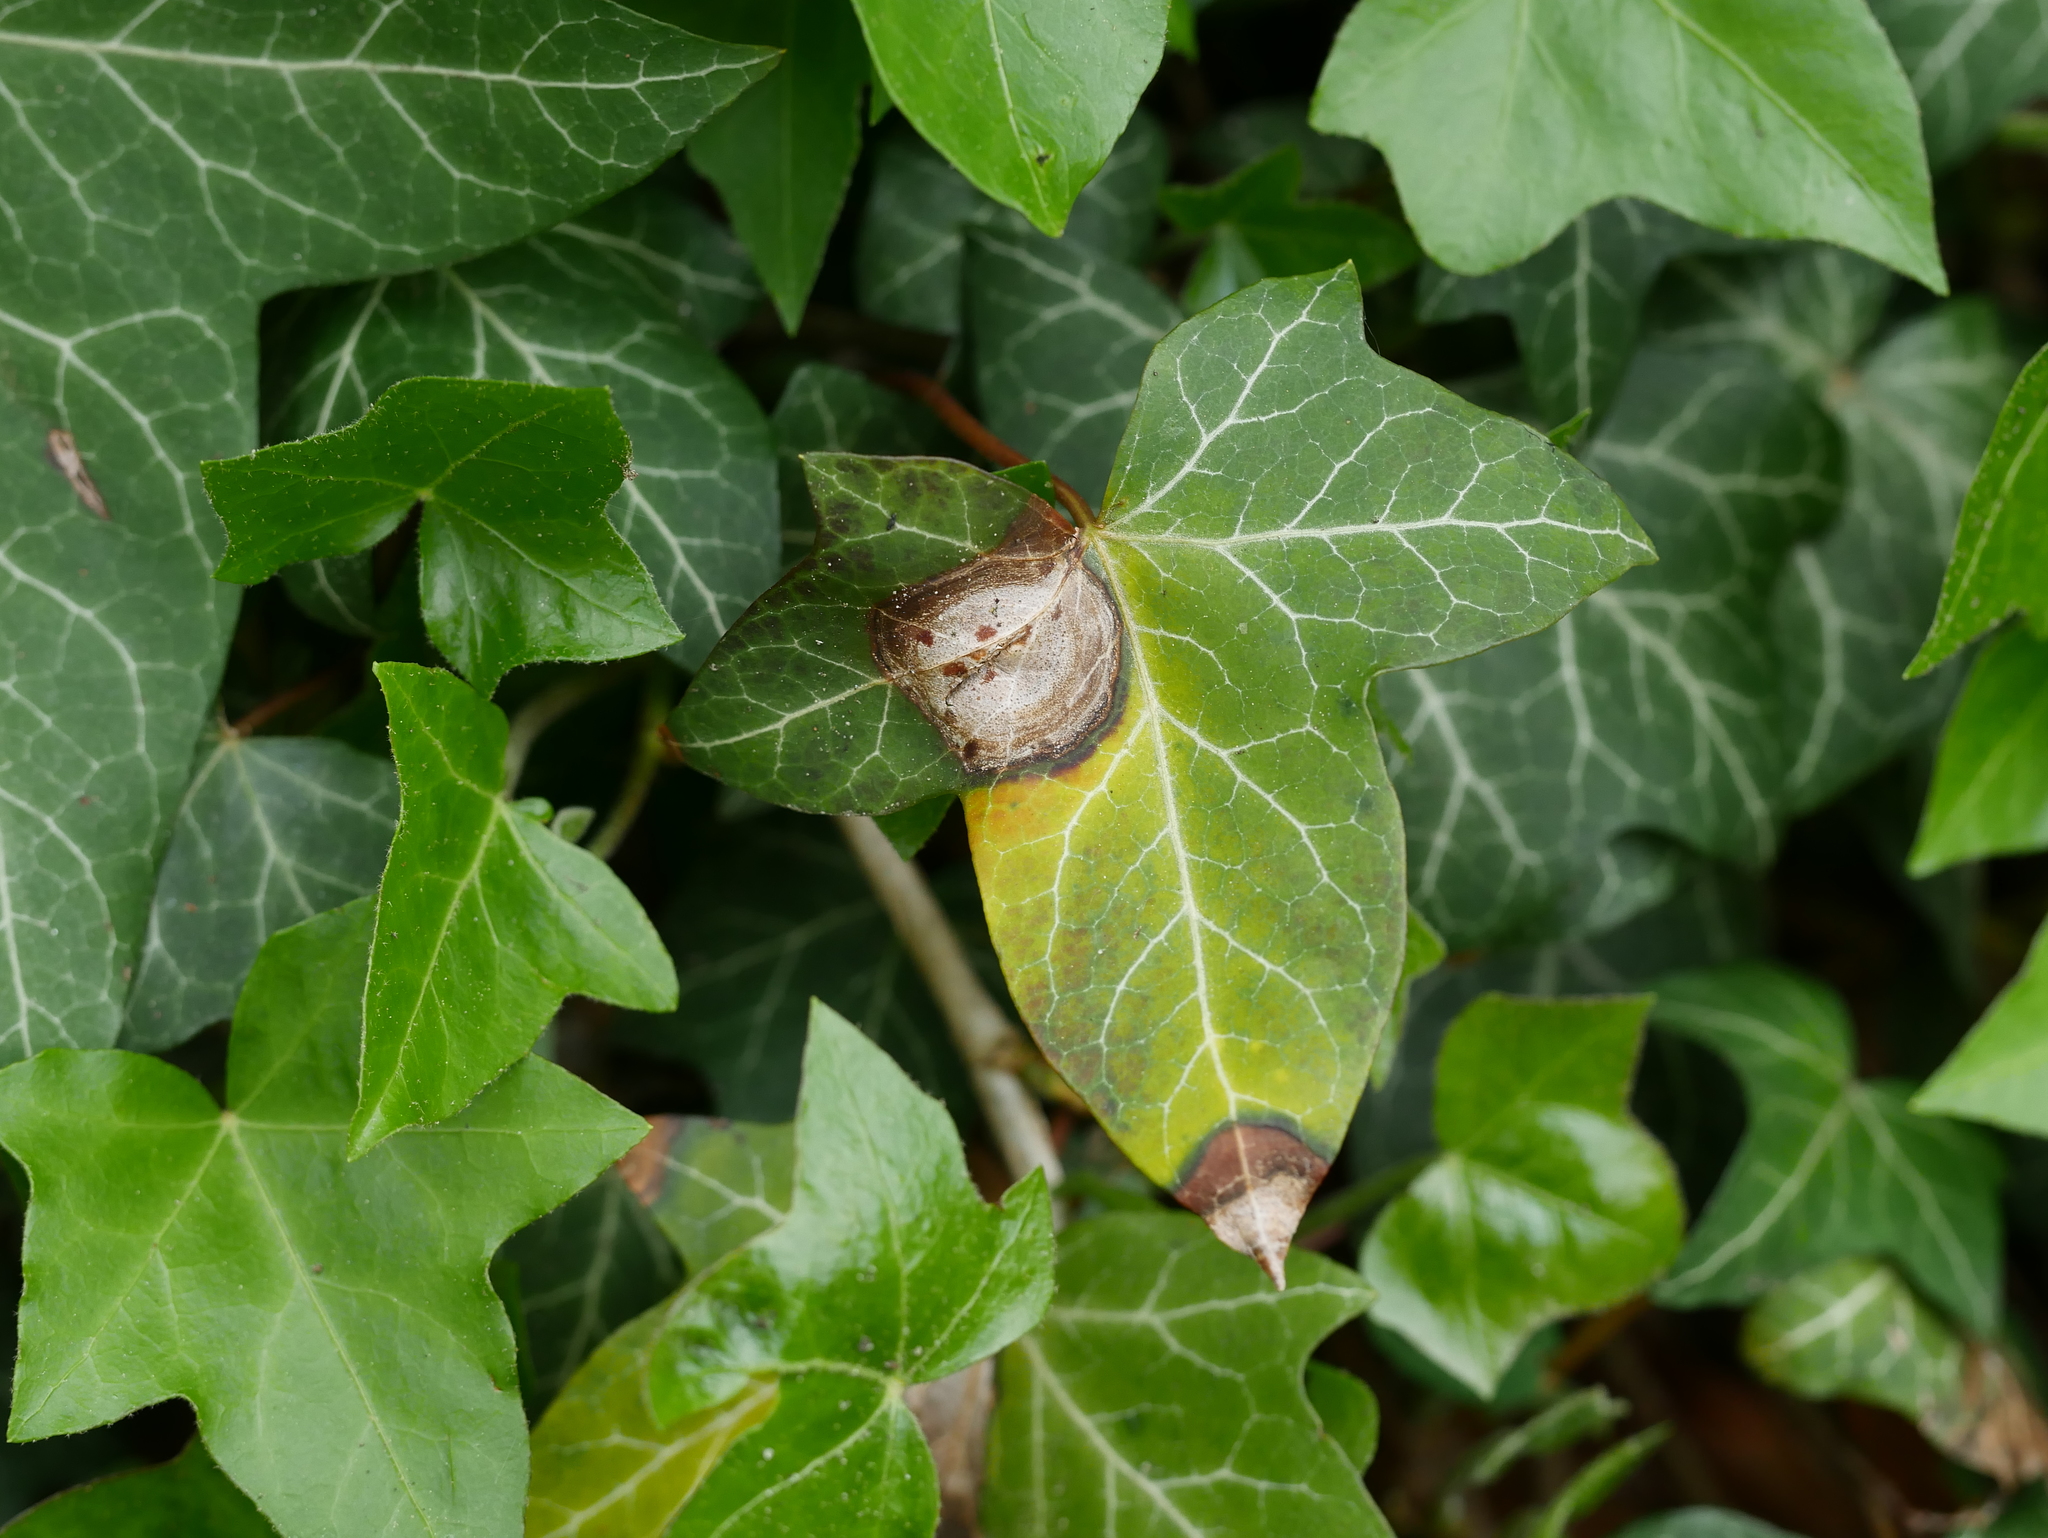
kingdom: Plantae
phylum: Tracheophyta
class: Magnoliopsida
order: Apiales
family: Araliaceae
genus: Hedera
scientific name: Hedera helix
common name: Ivy
